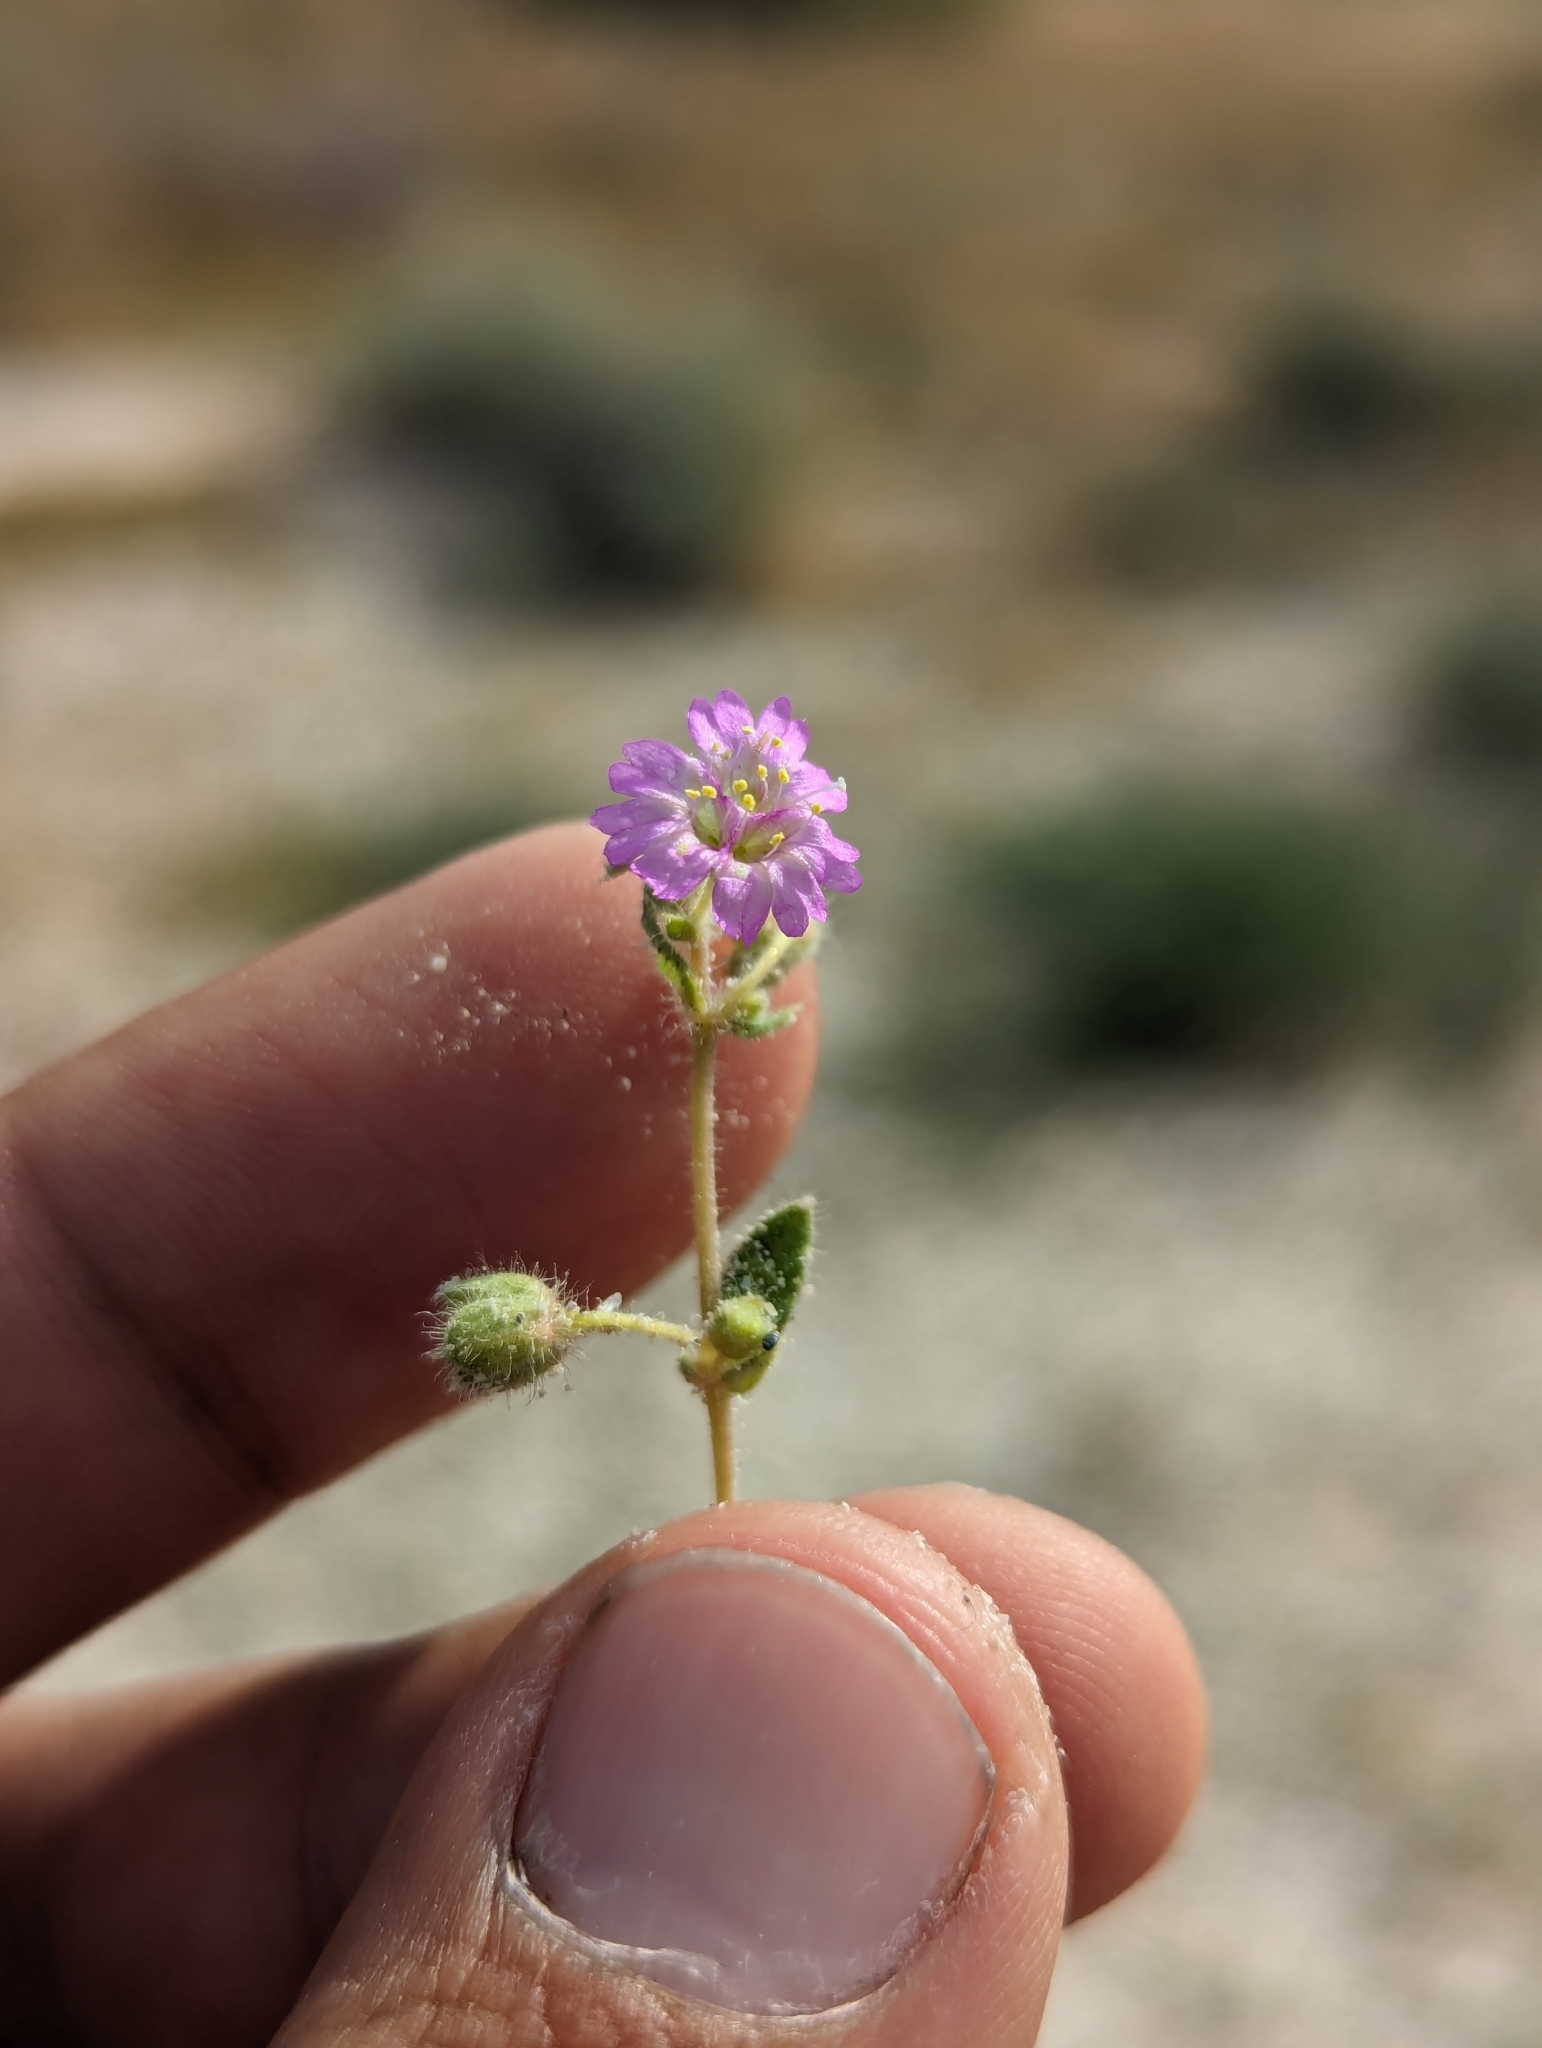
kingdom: Plantae
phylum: Tracheophyta
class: Magnoliopsida
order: Caryophyllales
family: Nyctaginaceae
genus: Allionia
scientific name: Allionia incarnata
